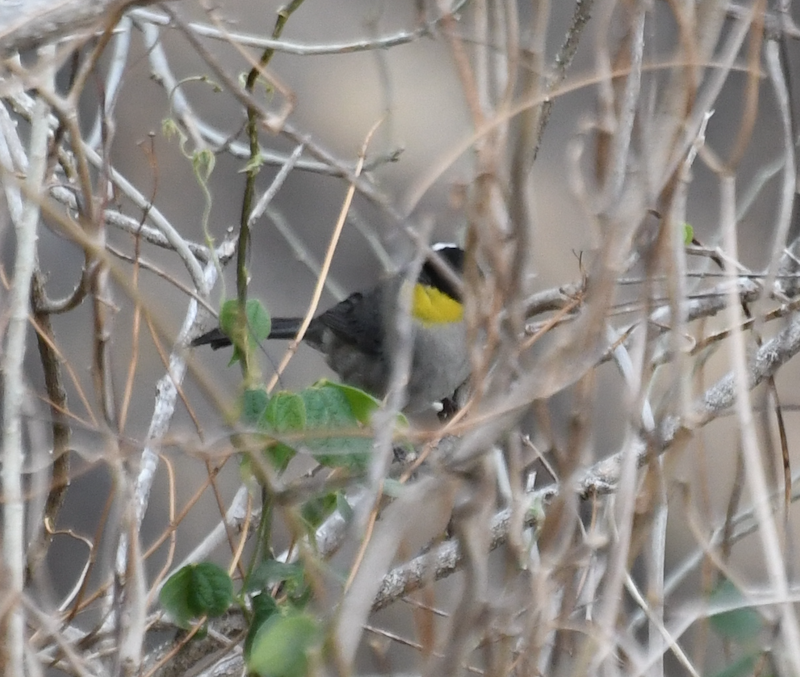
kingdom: Animalia
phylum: Chordata
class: Aves
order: Passeriformes
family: Passerellidae
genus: Atlapetes
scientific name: Atlapetes albinucha
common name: White-naped brush-finch
